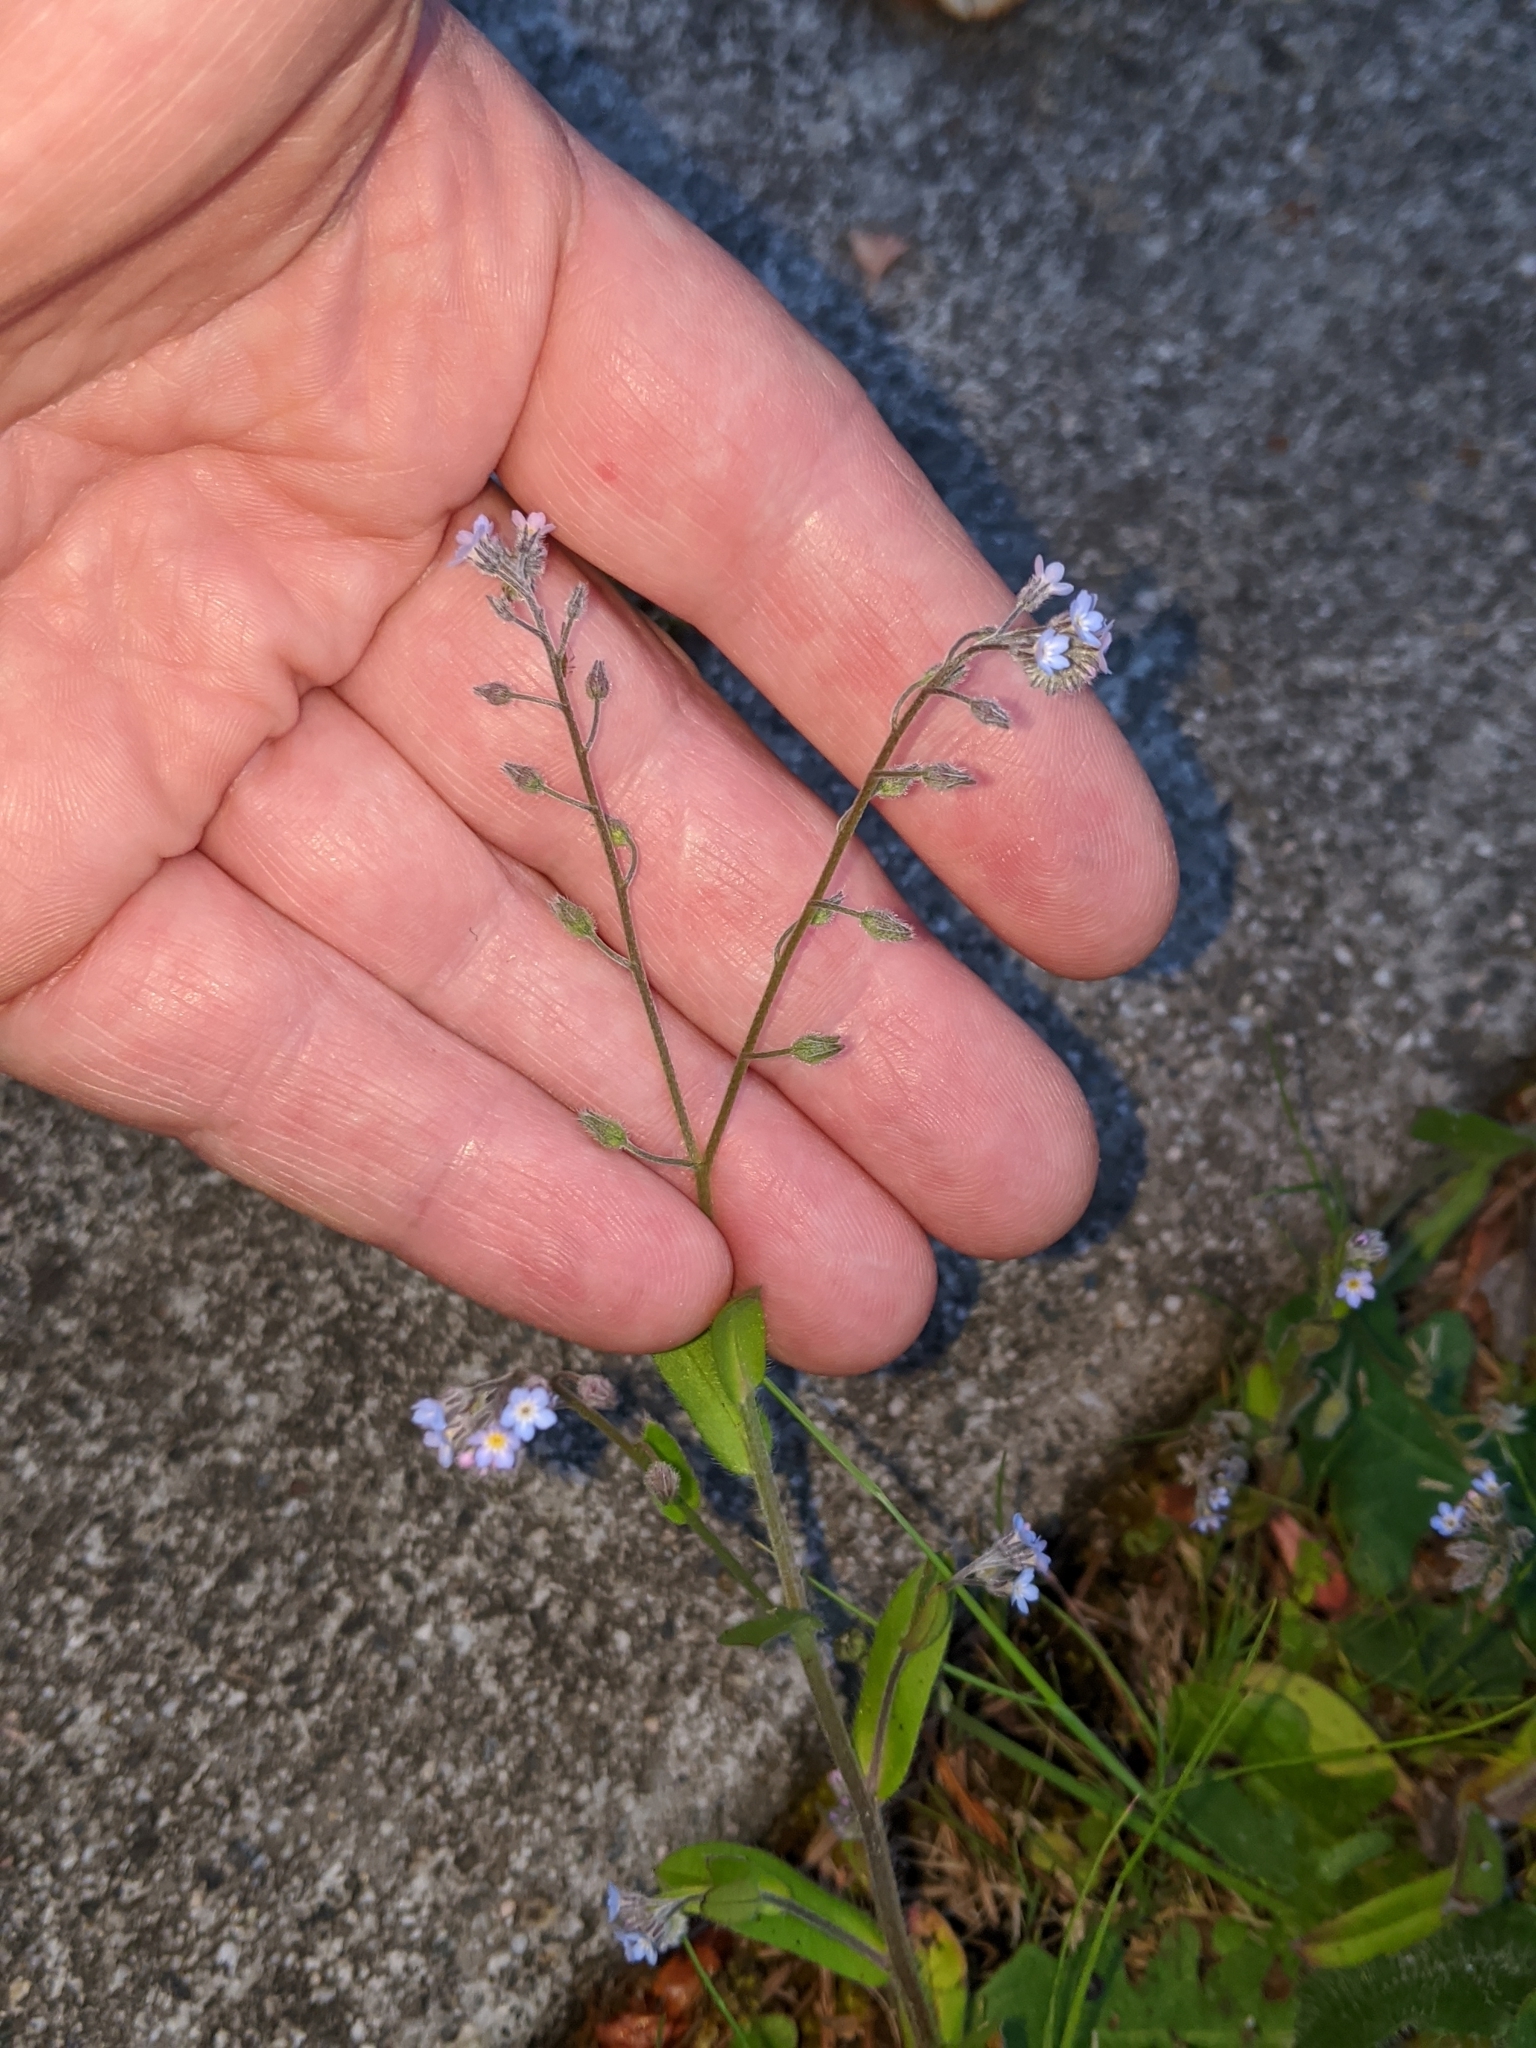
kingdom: Plantae
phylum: Tracheophyta
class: Magnoliopsida
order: Boraginales
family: Boraginaceae
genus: Myosotis
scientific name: Myosotis arvensis
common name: Field forget-me-not
